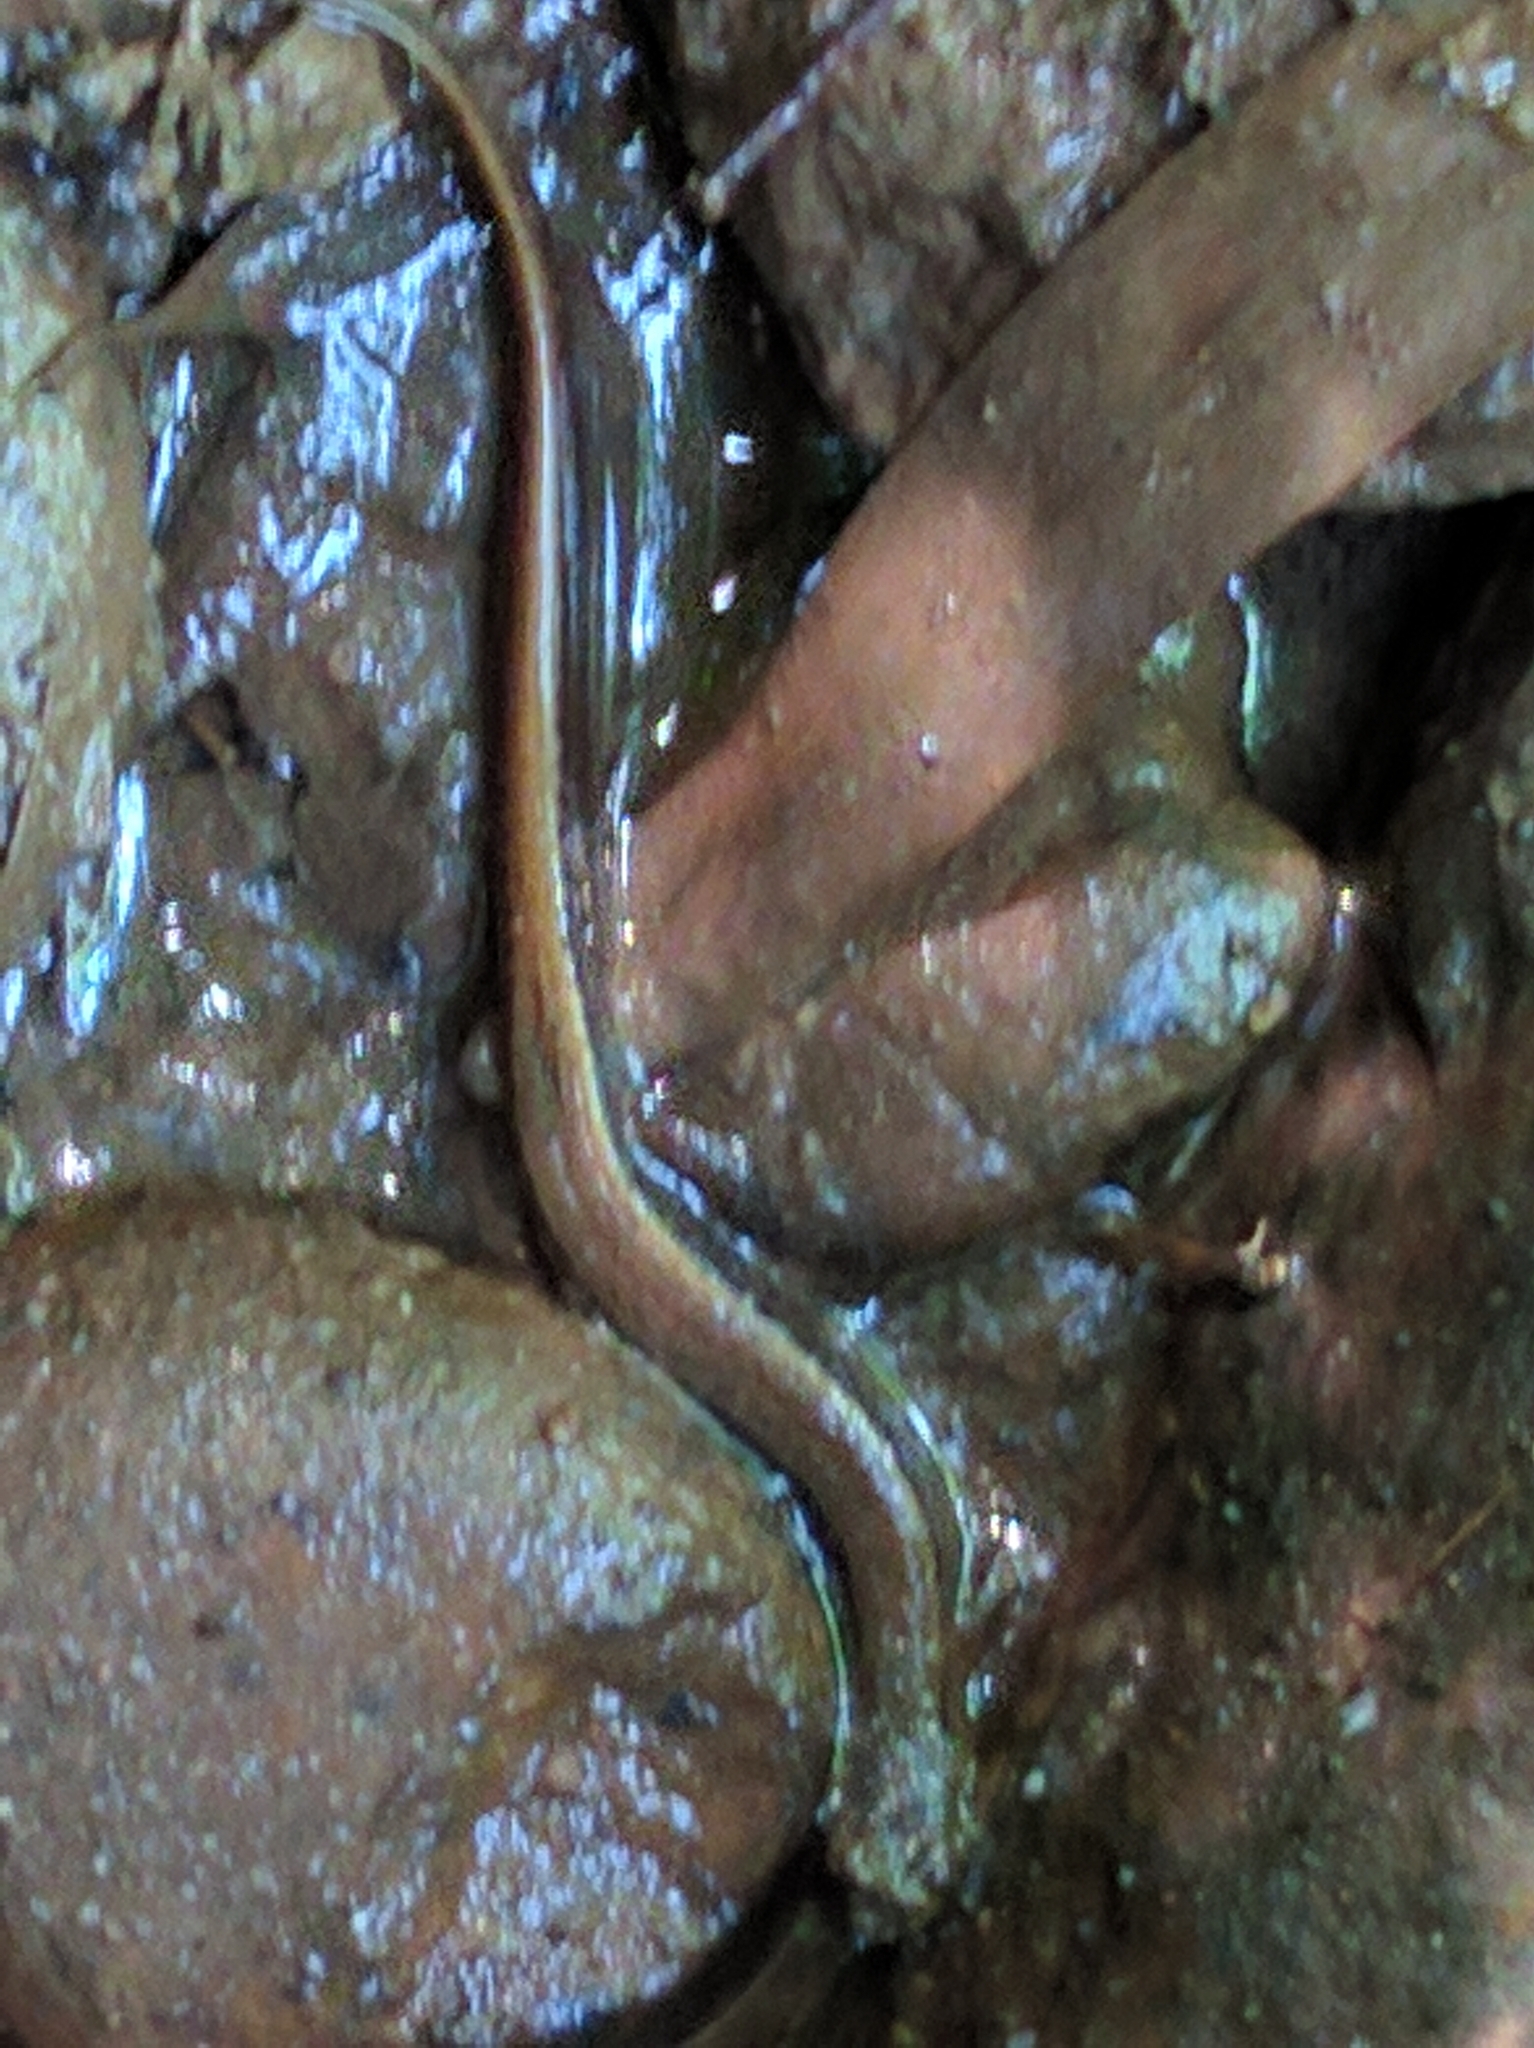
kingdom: Animalia
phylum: Chordata
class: Amphibia
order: Caudata
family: Plethodontidae
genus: Eurycea
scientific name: Eurycea bislineata
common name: Northern two-lined salamander
